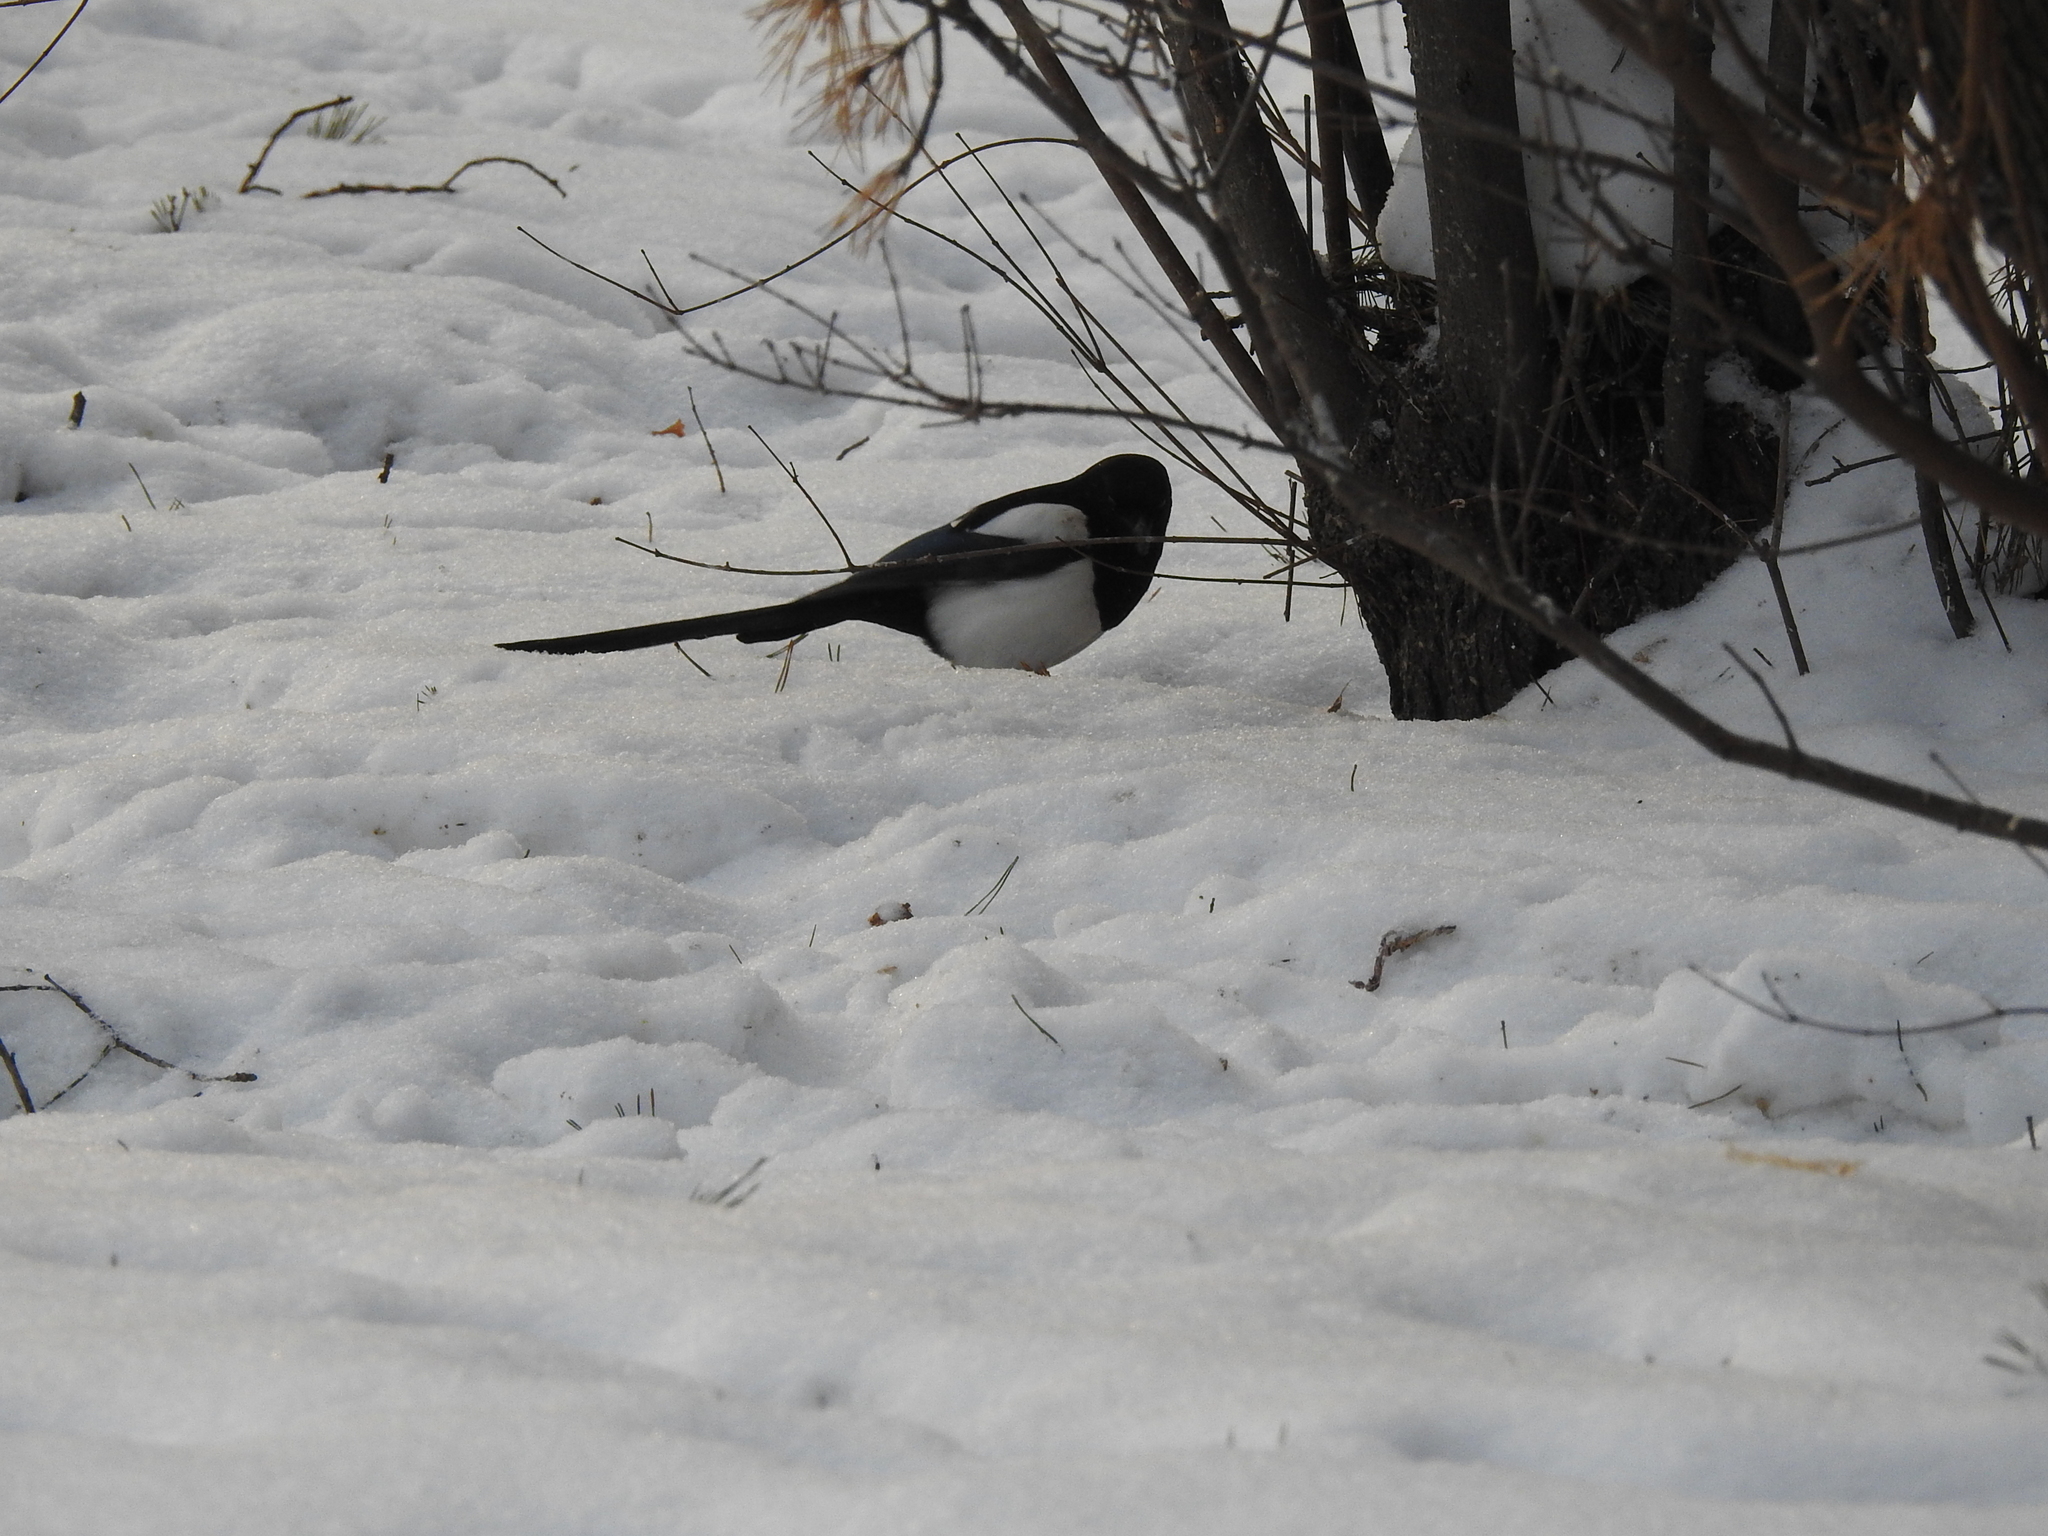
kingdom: Animalia
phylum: Chordata
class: Aves
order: Passeriformes
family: Corvidae
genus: Pica
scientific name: Pica pica
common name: Eurasian magpie
